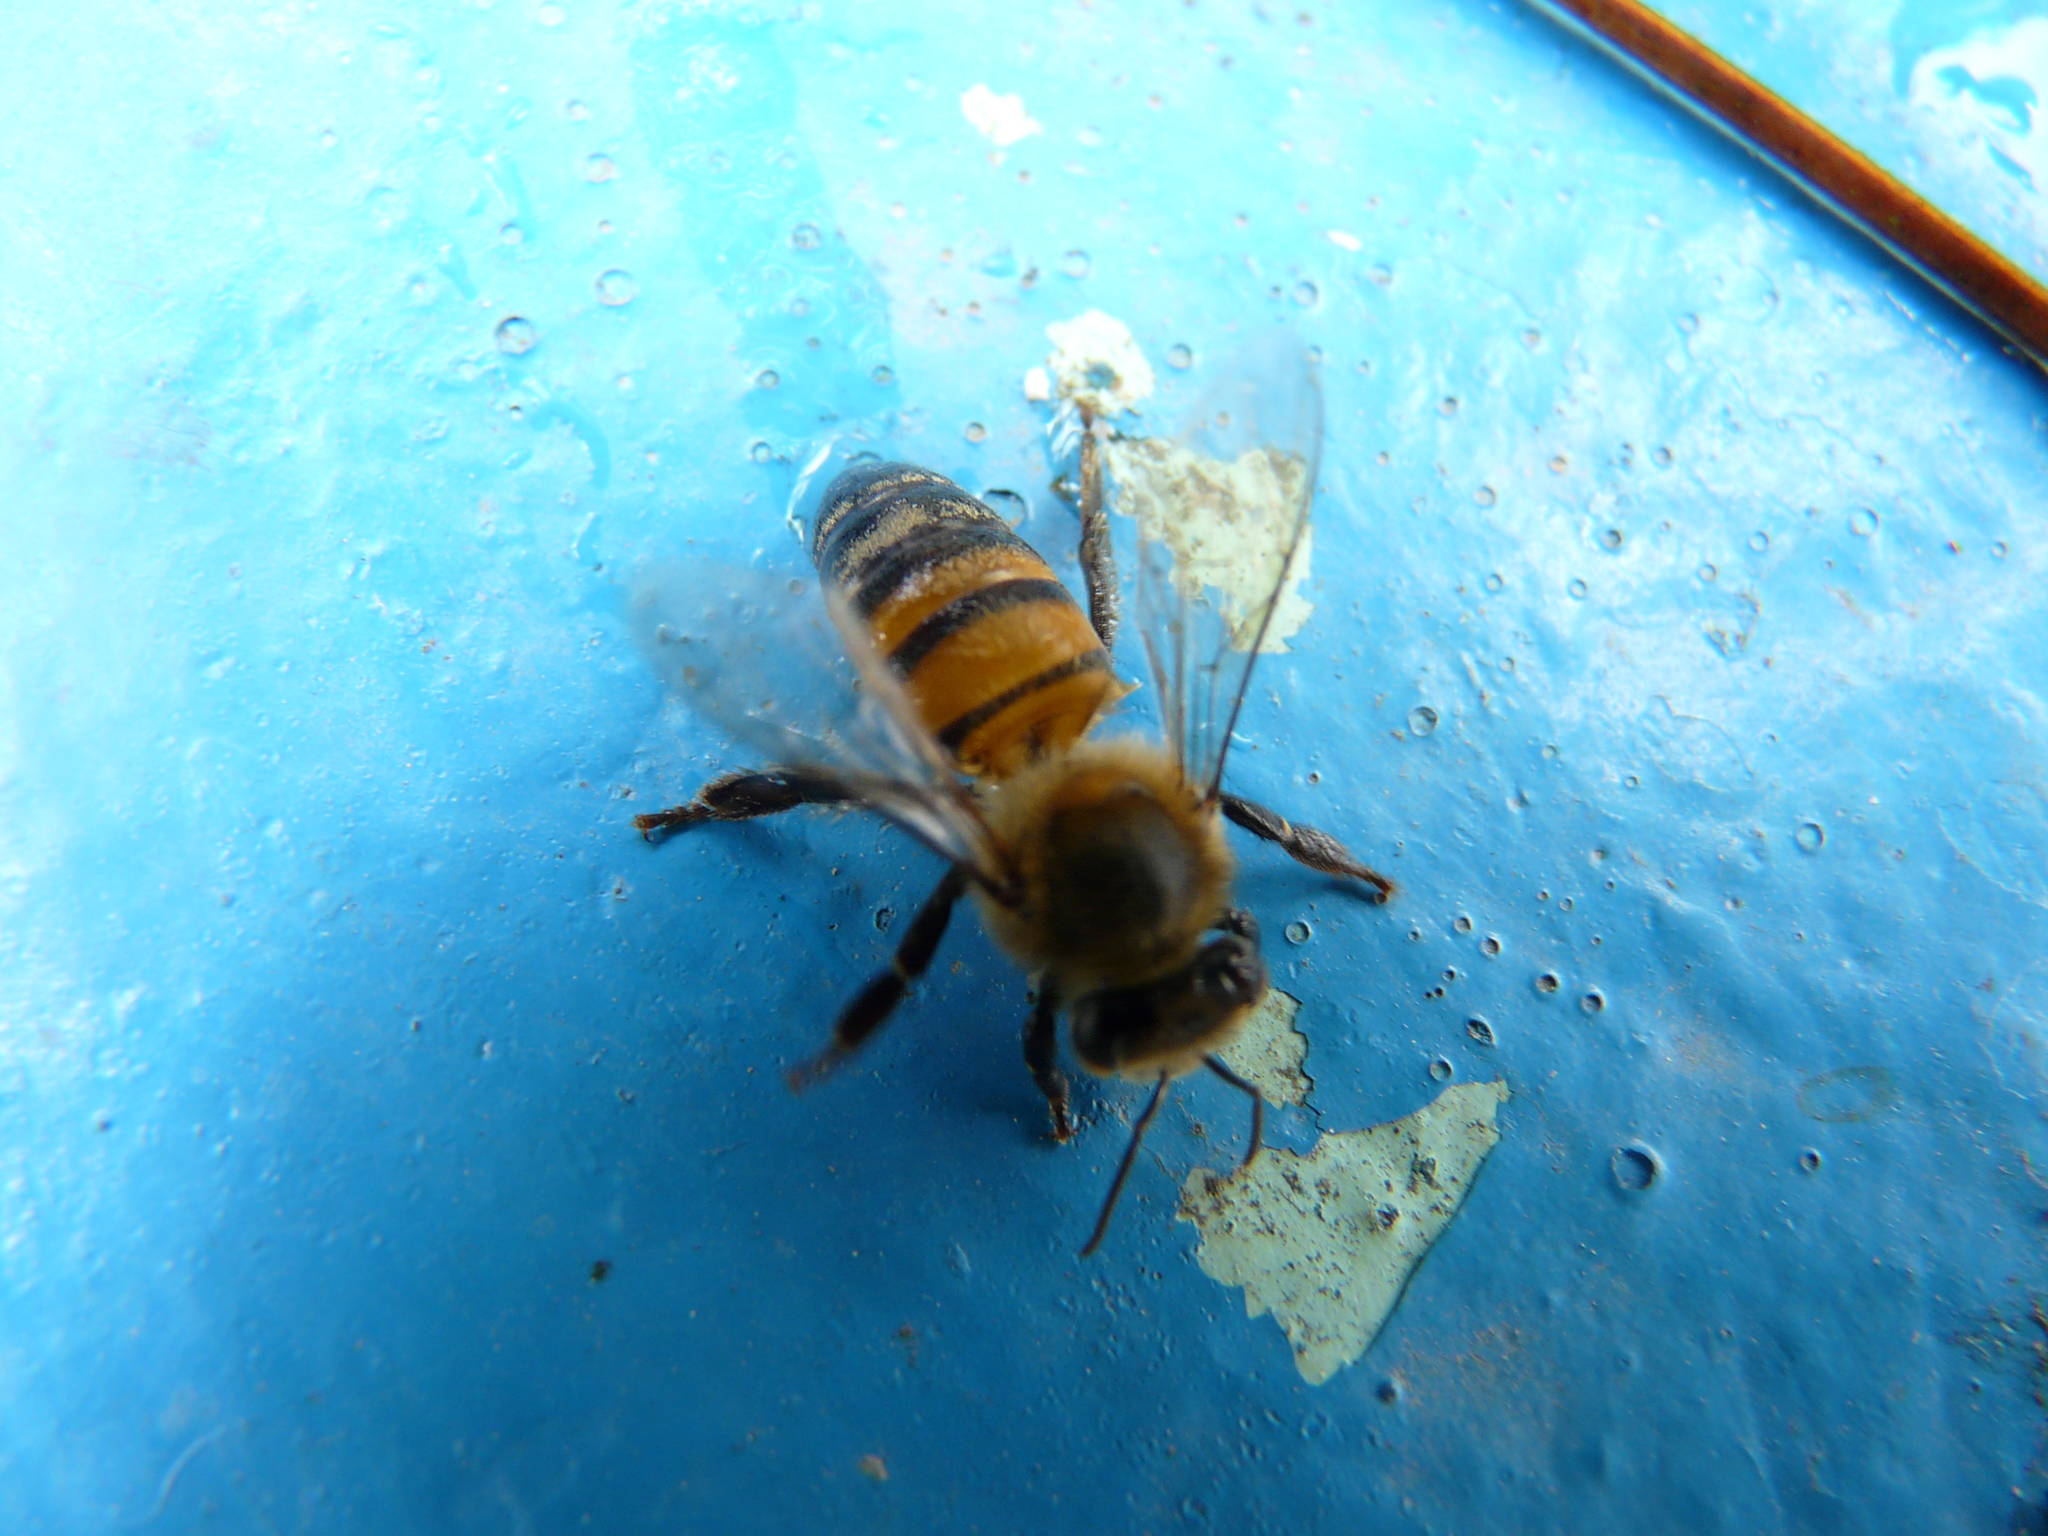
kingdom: Animalia
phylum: Arthropoda
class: Insecta
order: Hymenoptera
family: Apidae
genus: Apis
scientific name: Apis mellifera
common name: Honey bee
